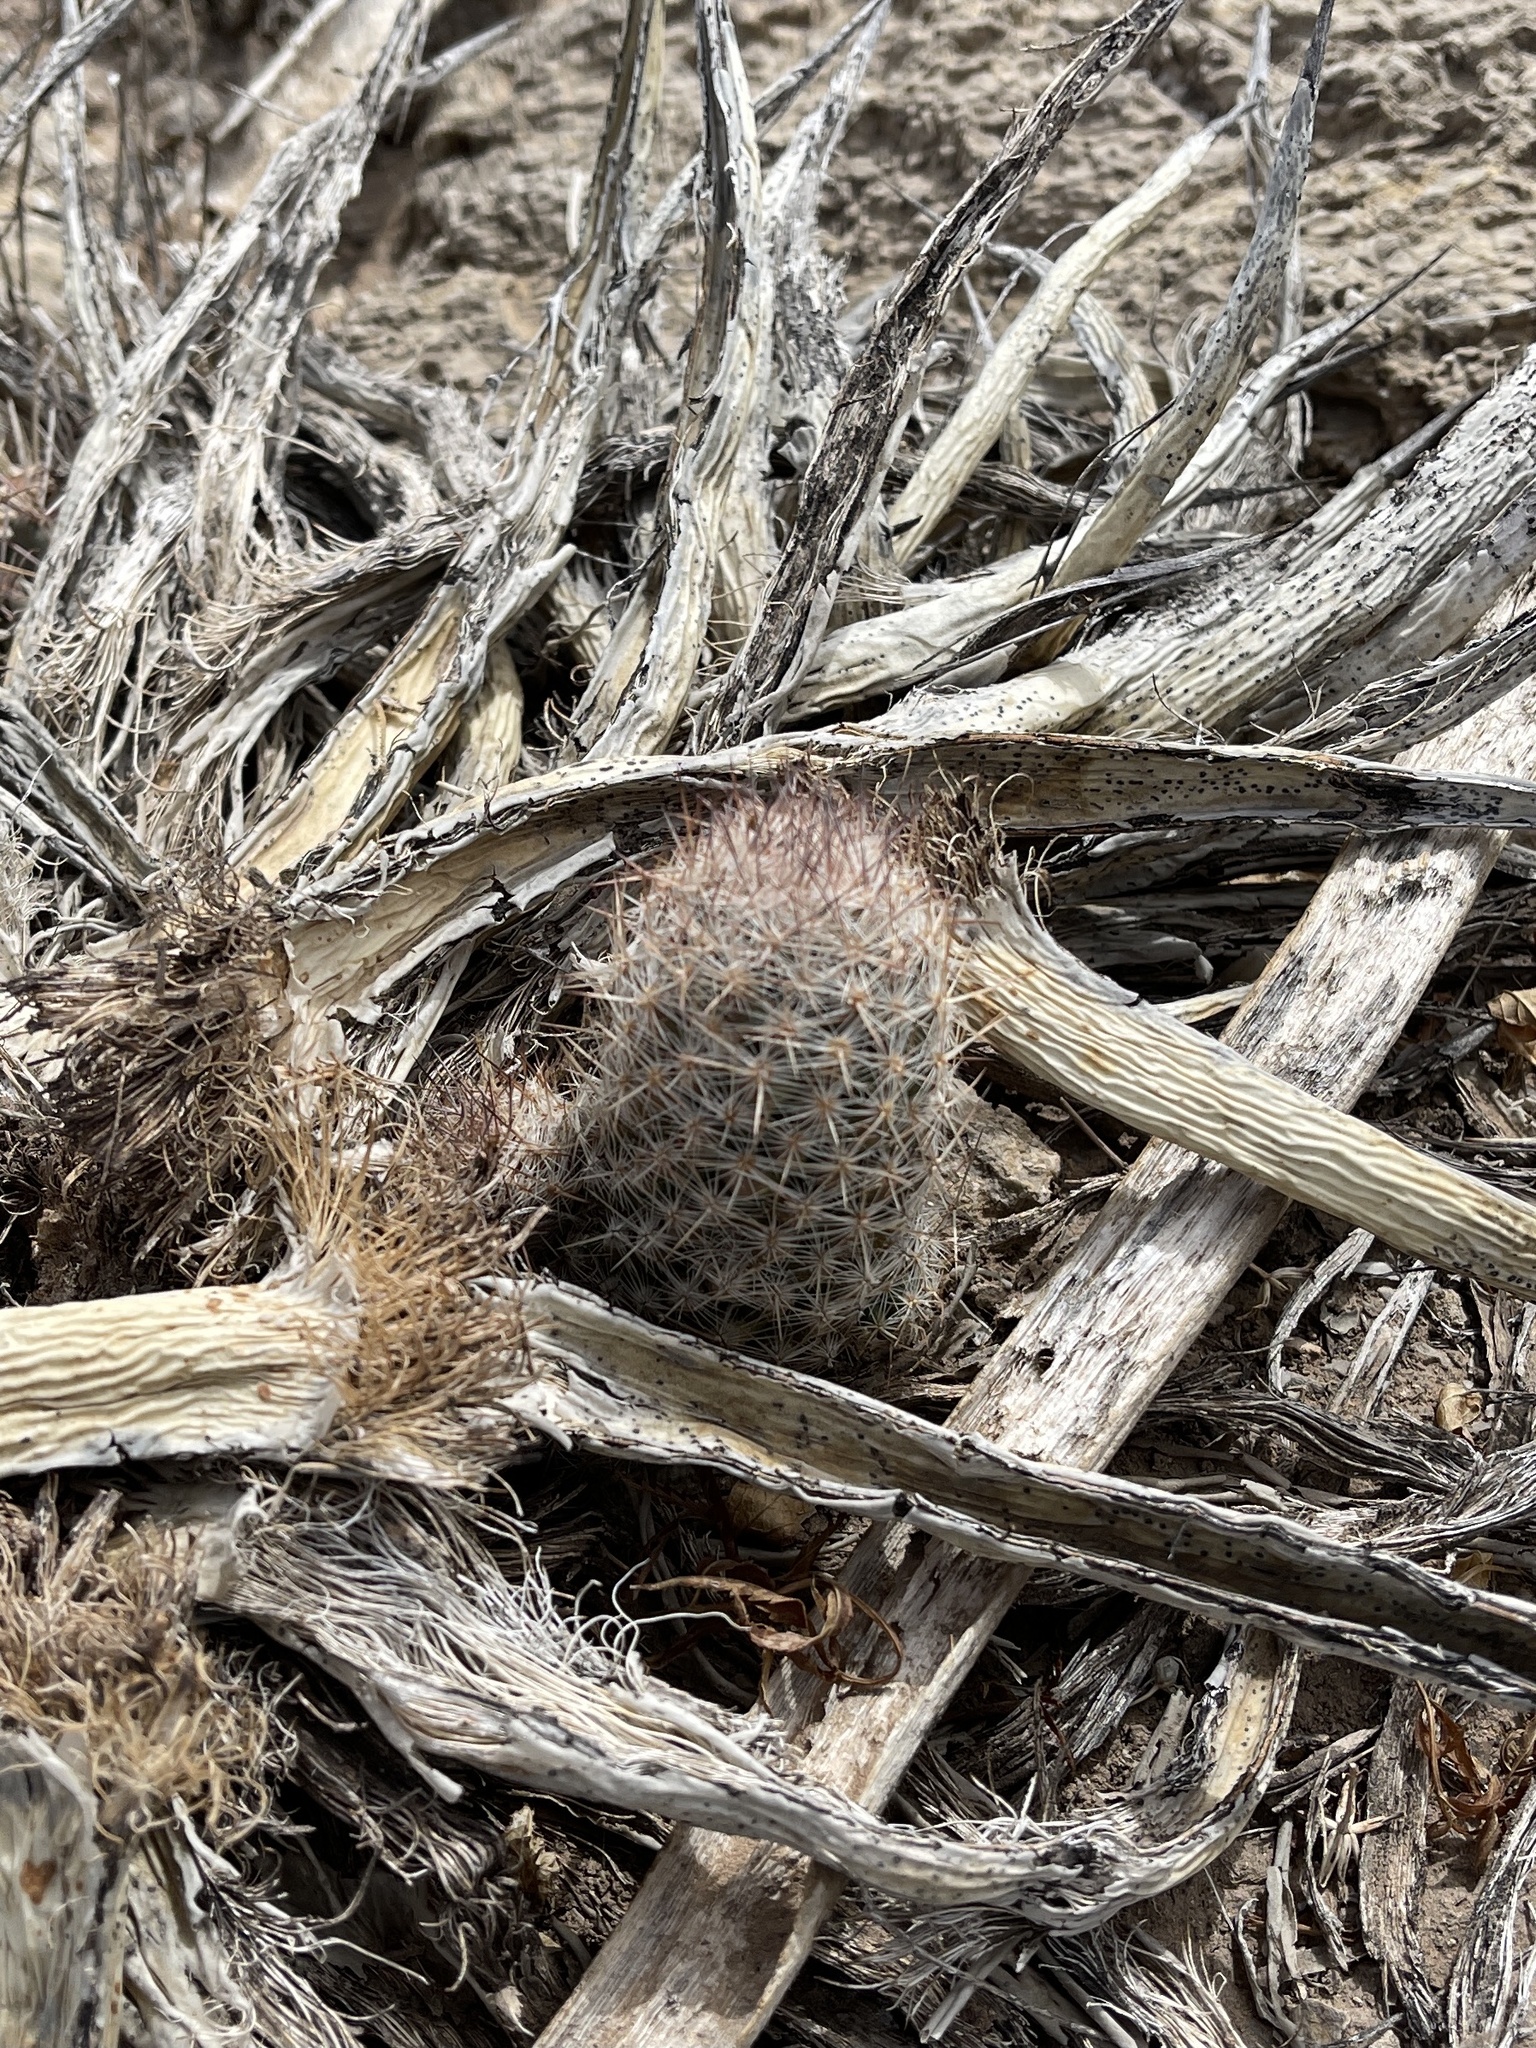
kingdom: Plantae
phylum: Tracheophyta
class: Magnoliopsida
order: Caryophyllales
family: Cactaceae
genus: Pelecyphora
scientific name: Pelecyphora tuberculosa
